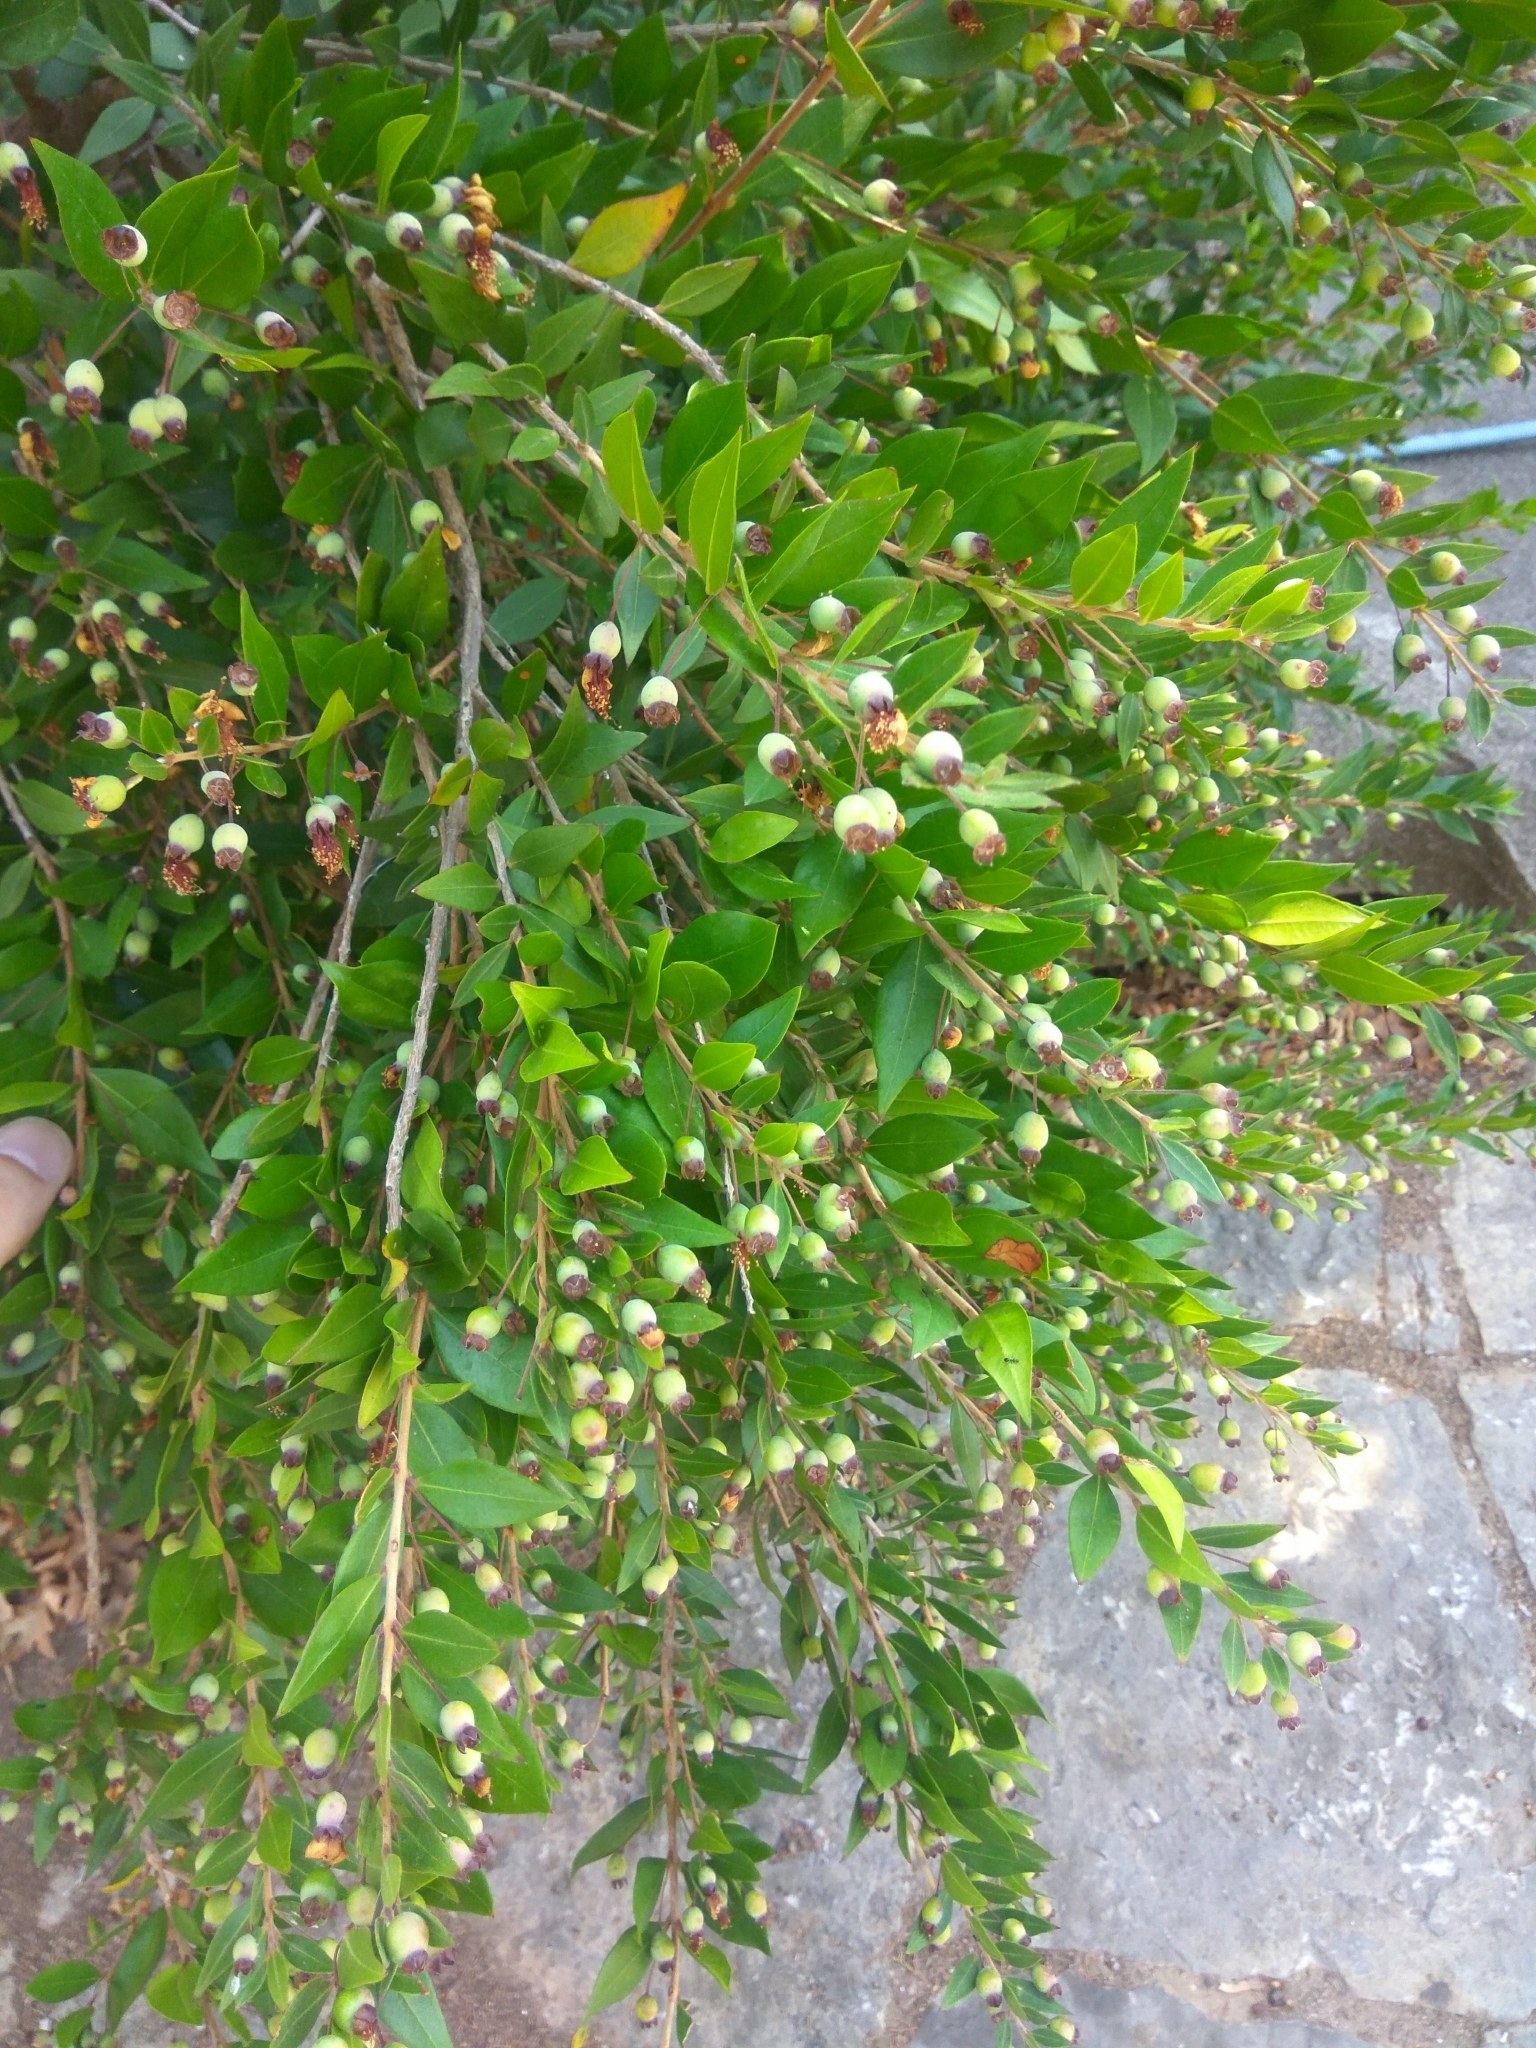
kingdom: Plantae
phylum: Tracheophyta
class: Magnoliopsida
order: Myrtales
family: Myrtaceae
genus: Myrtus
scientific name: Myrtus communis
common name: Myrtle
